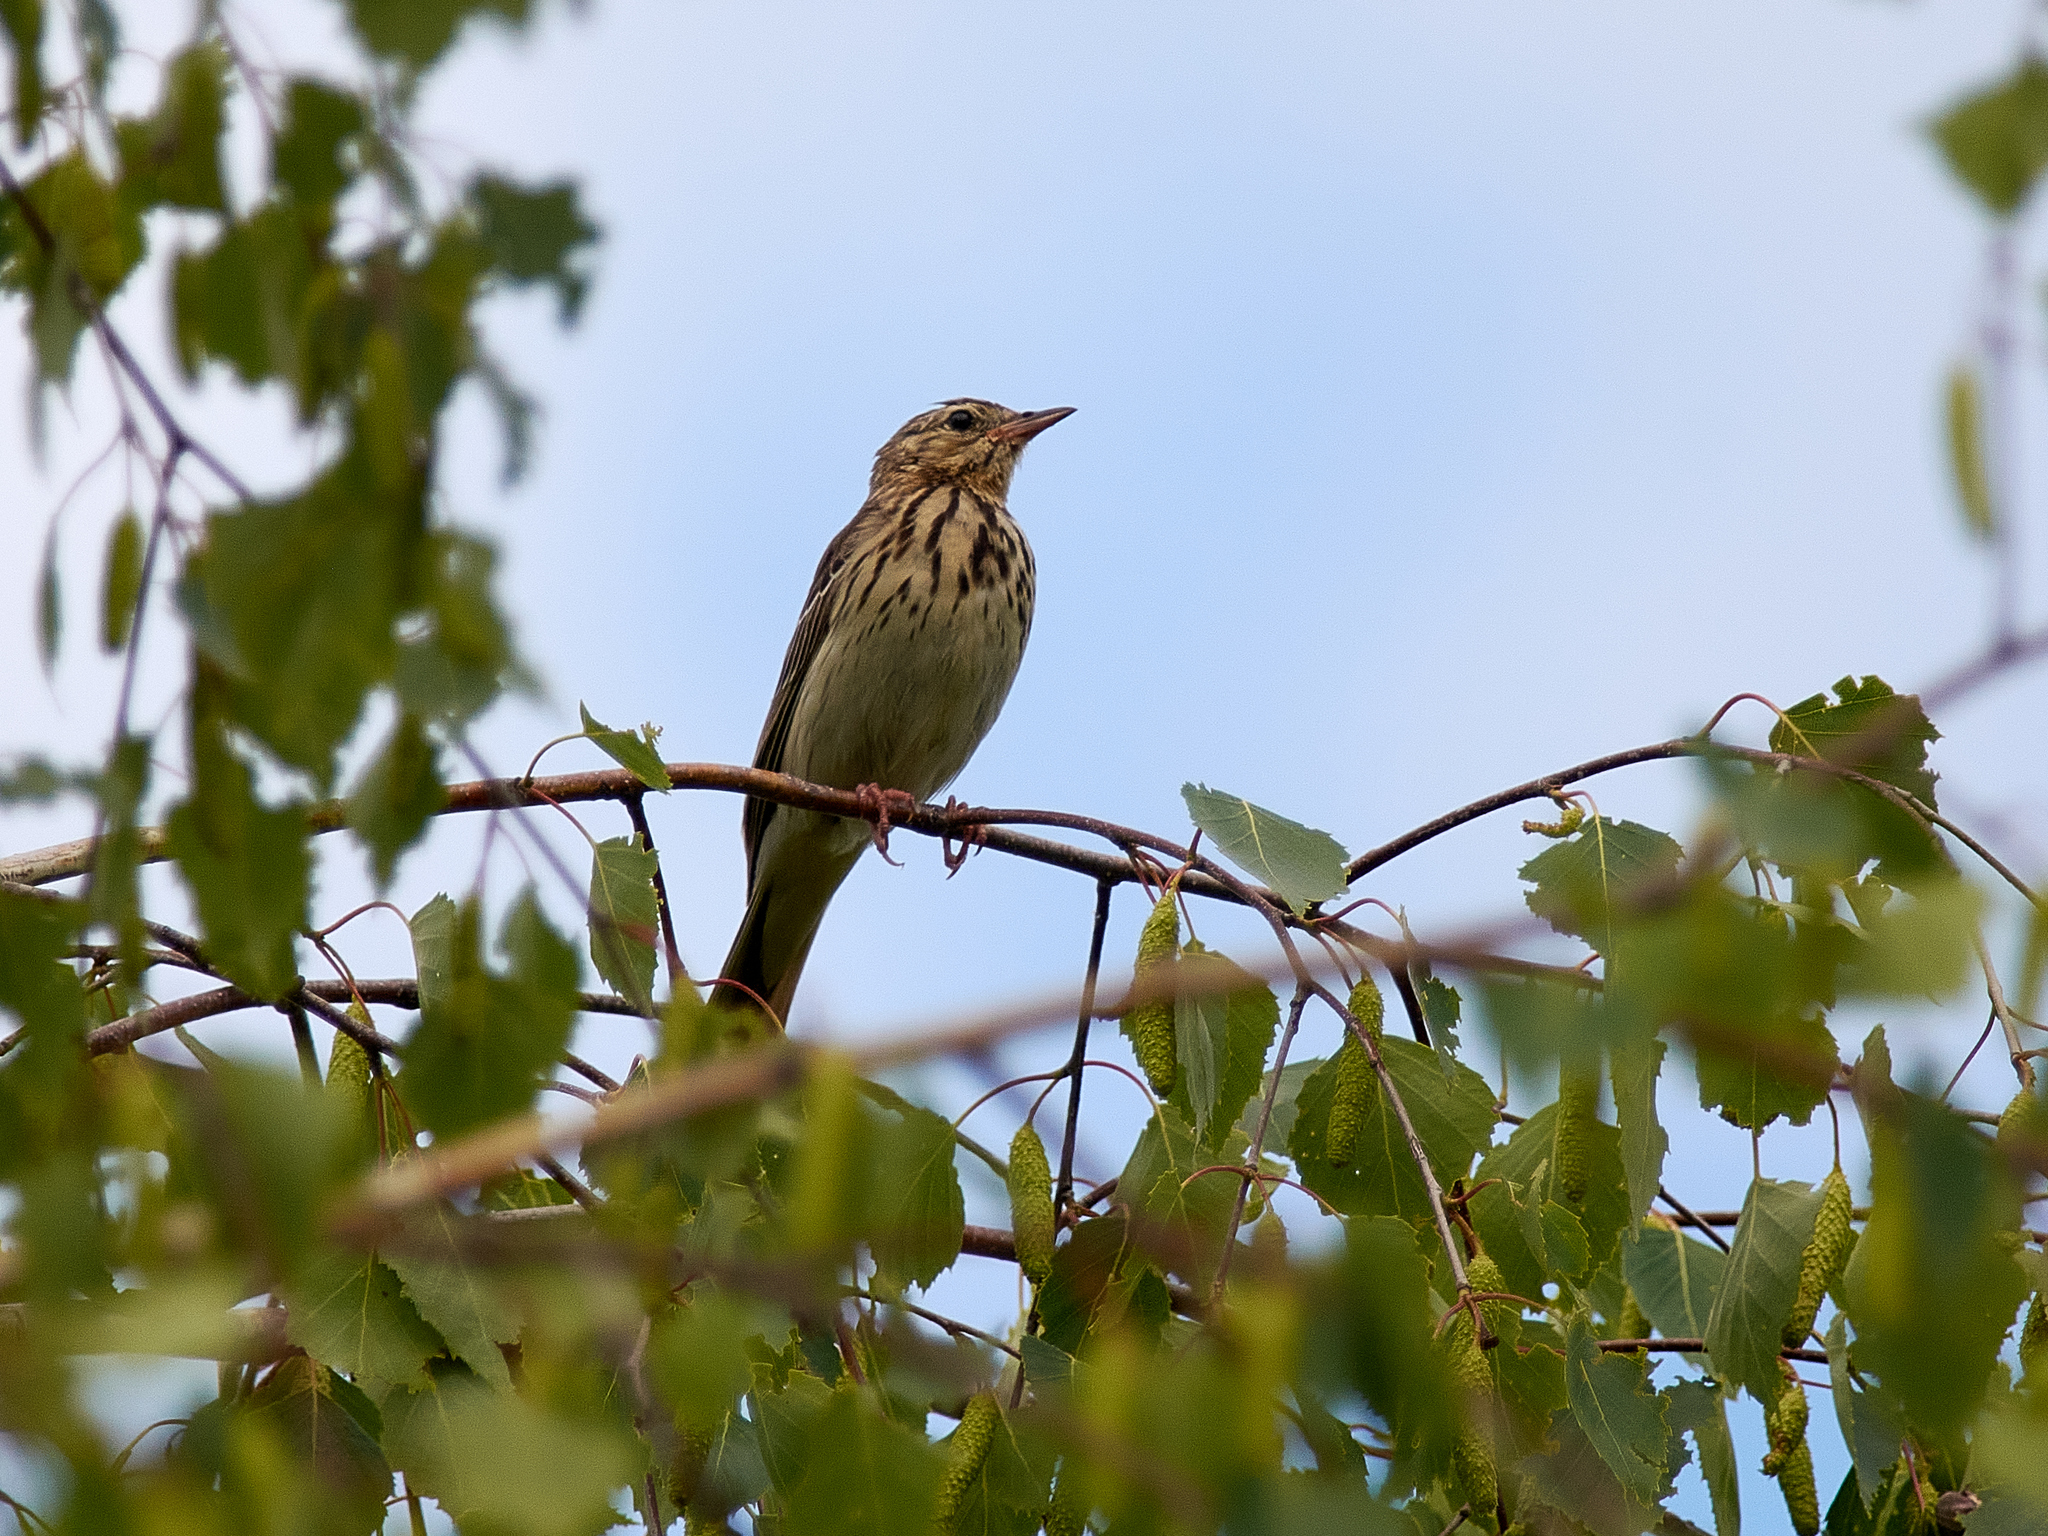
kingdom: Animalia
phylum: Chordata
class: Aves
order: Passeriformes
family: Motacillidae
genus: Anthus
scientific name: Anthus trivialis
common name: Tree pipit
